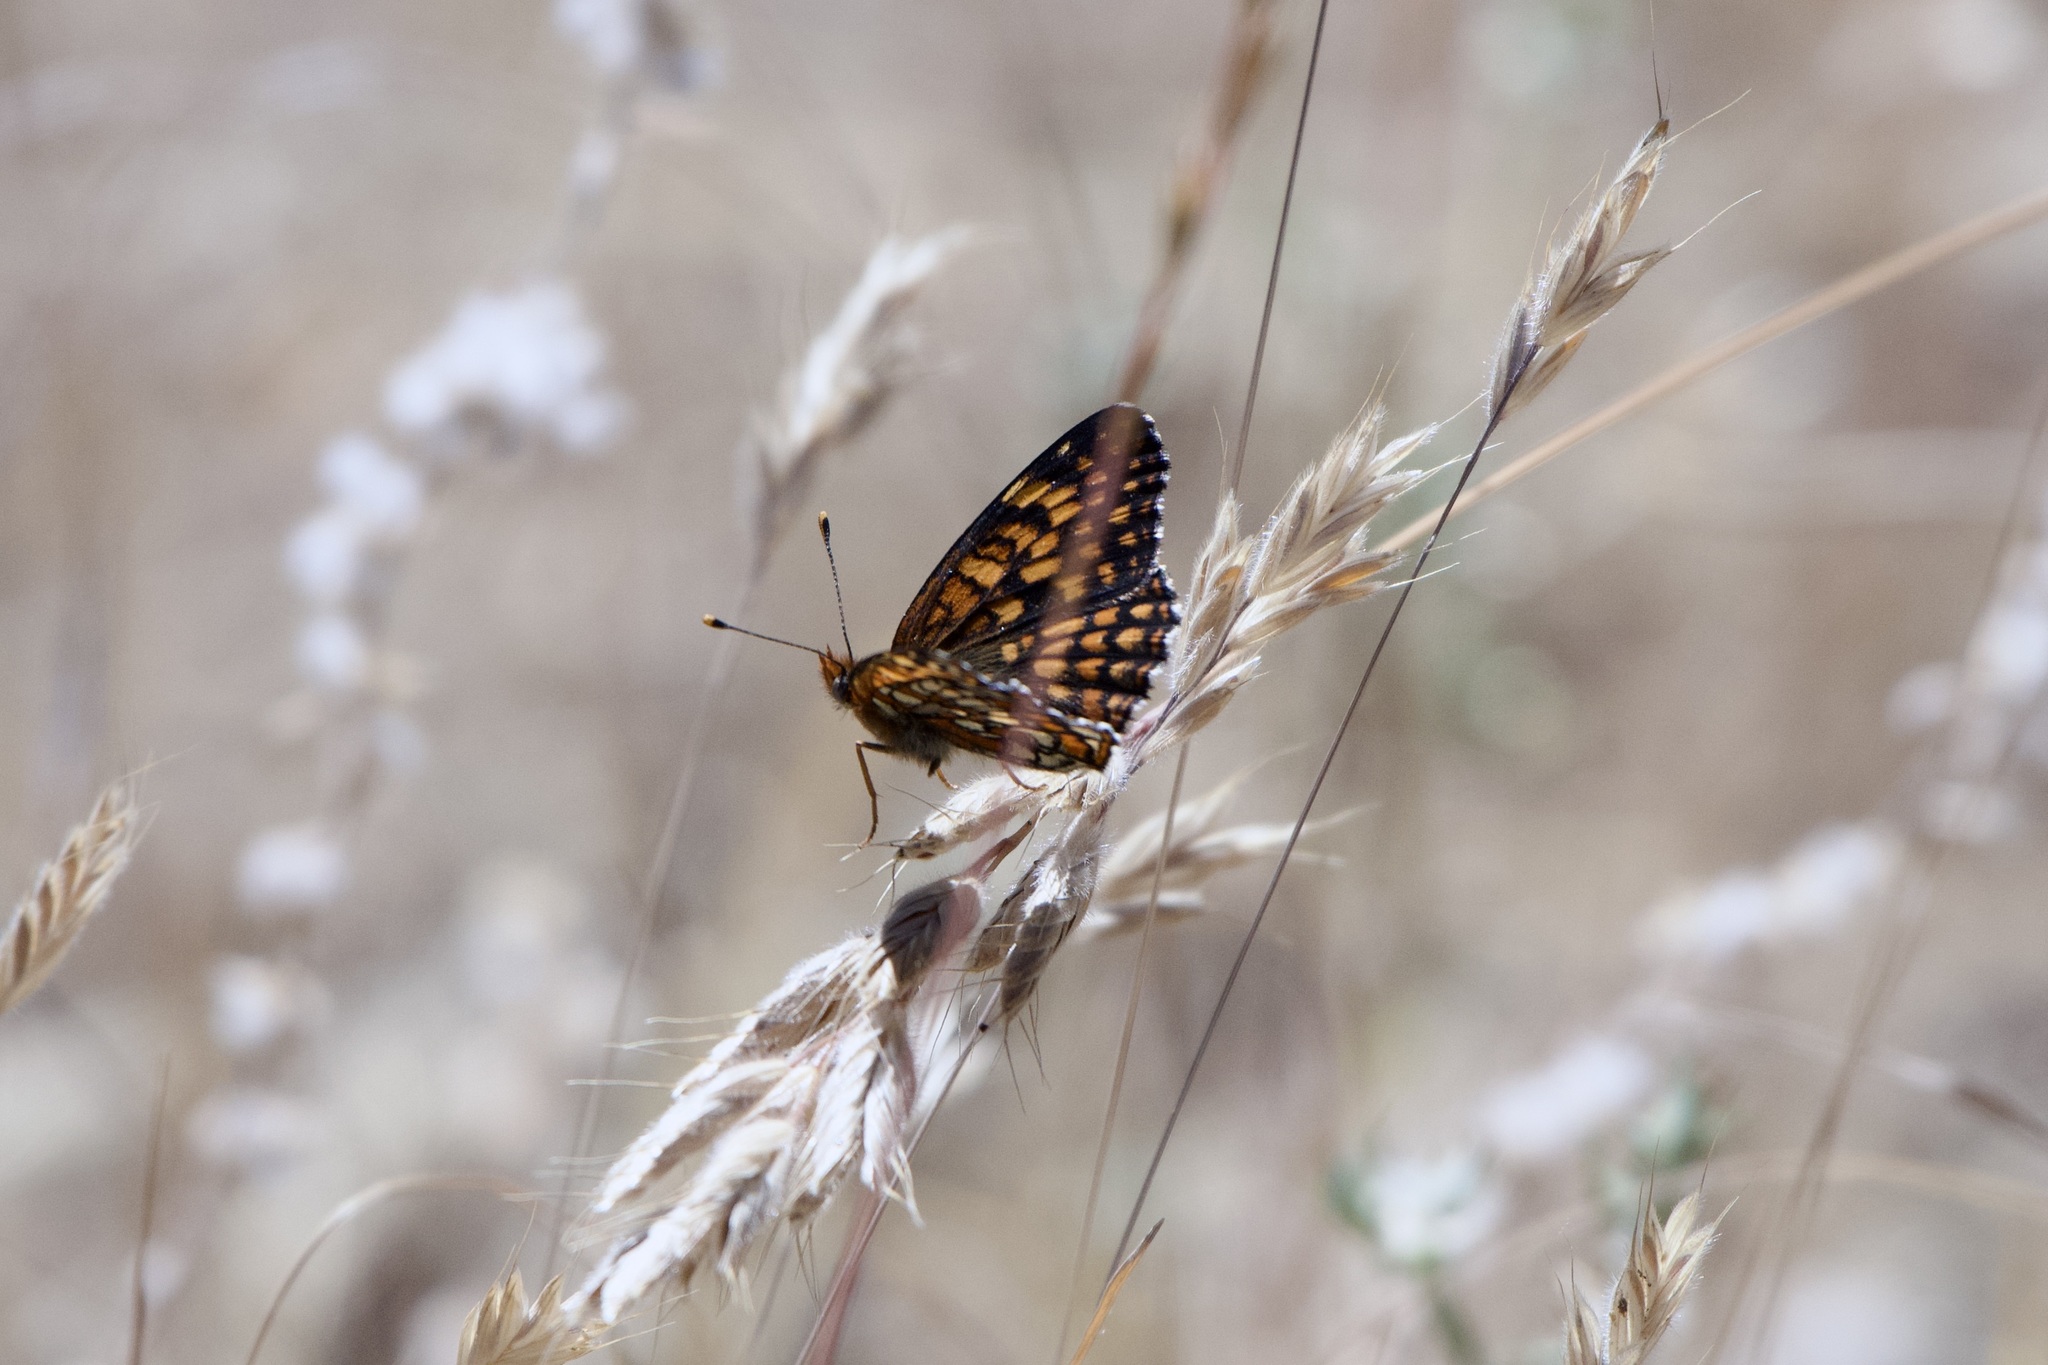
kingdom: Animalia
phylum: Arthropoda
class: Insecta
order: Lepidoptera
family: Nymphalidae
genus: Chlosyne
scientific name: Chlosyne palla
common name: Northern checkerspot
